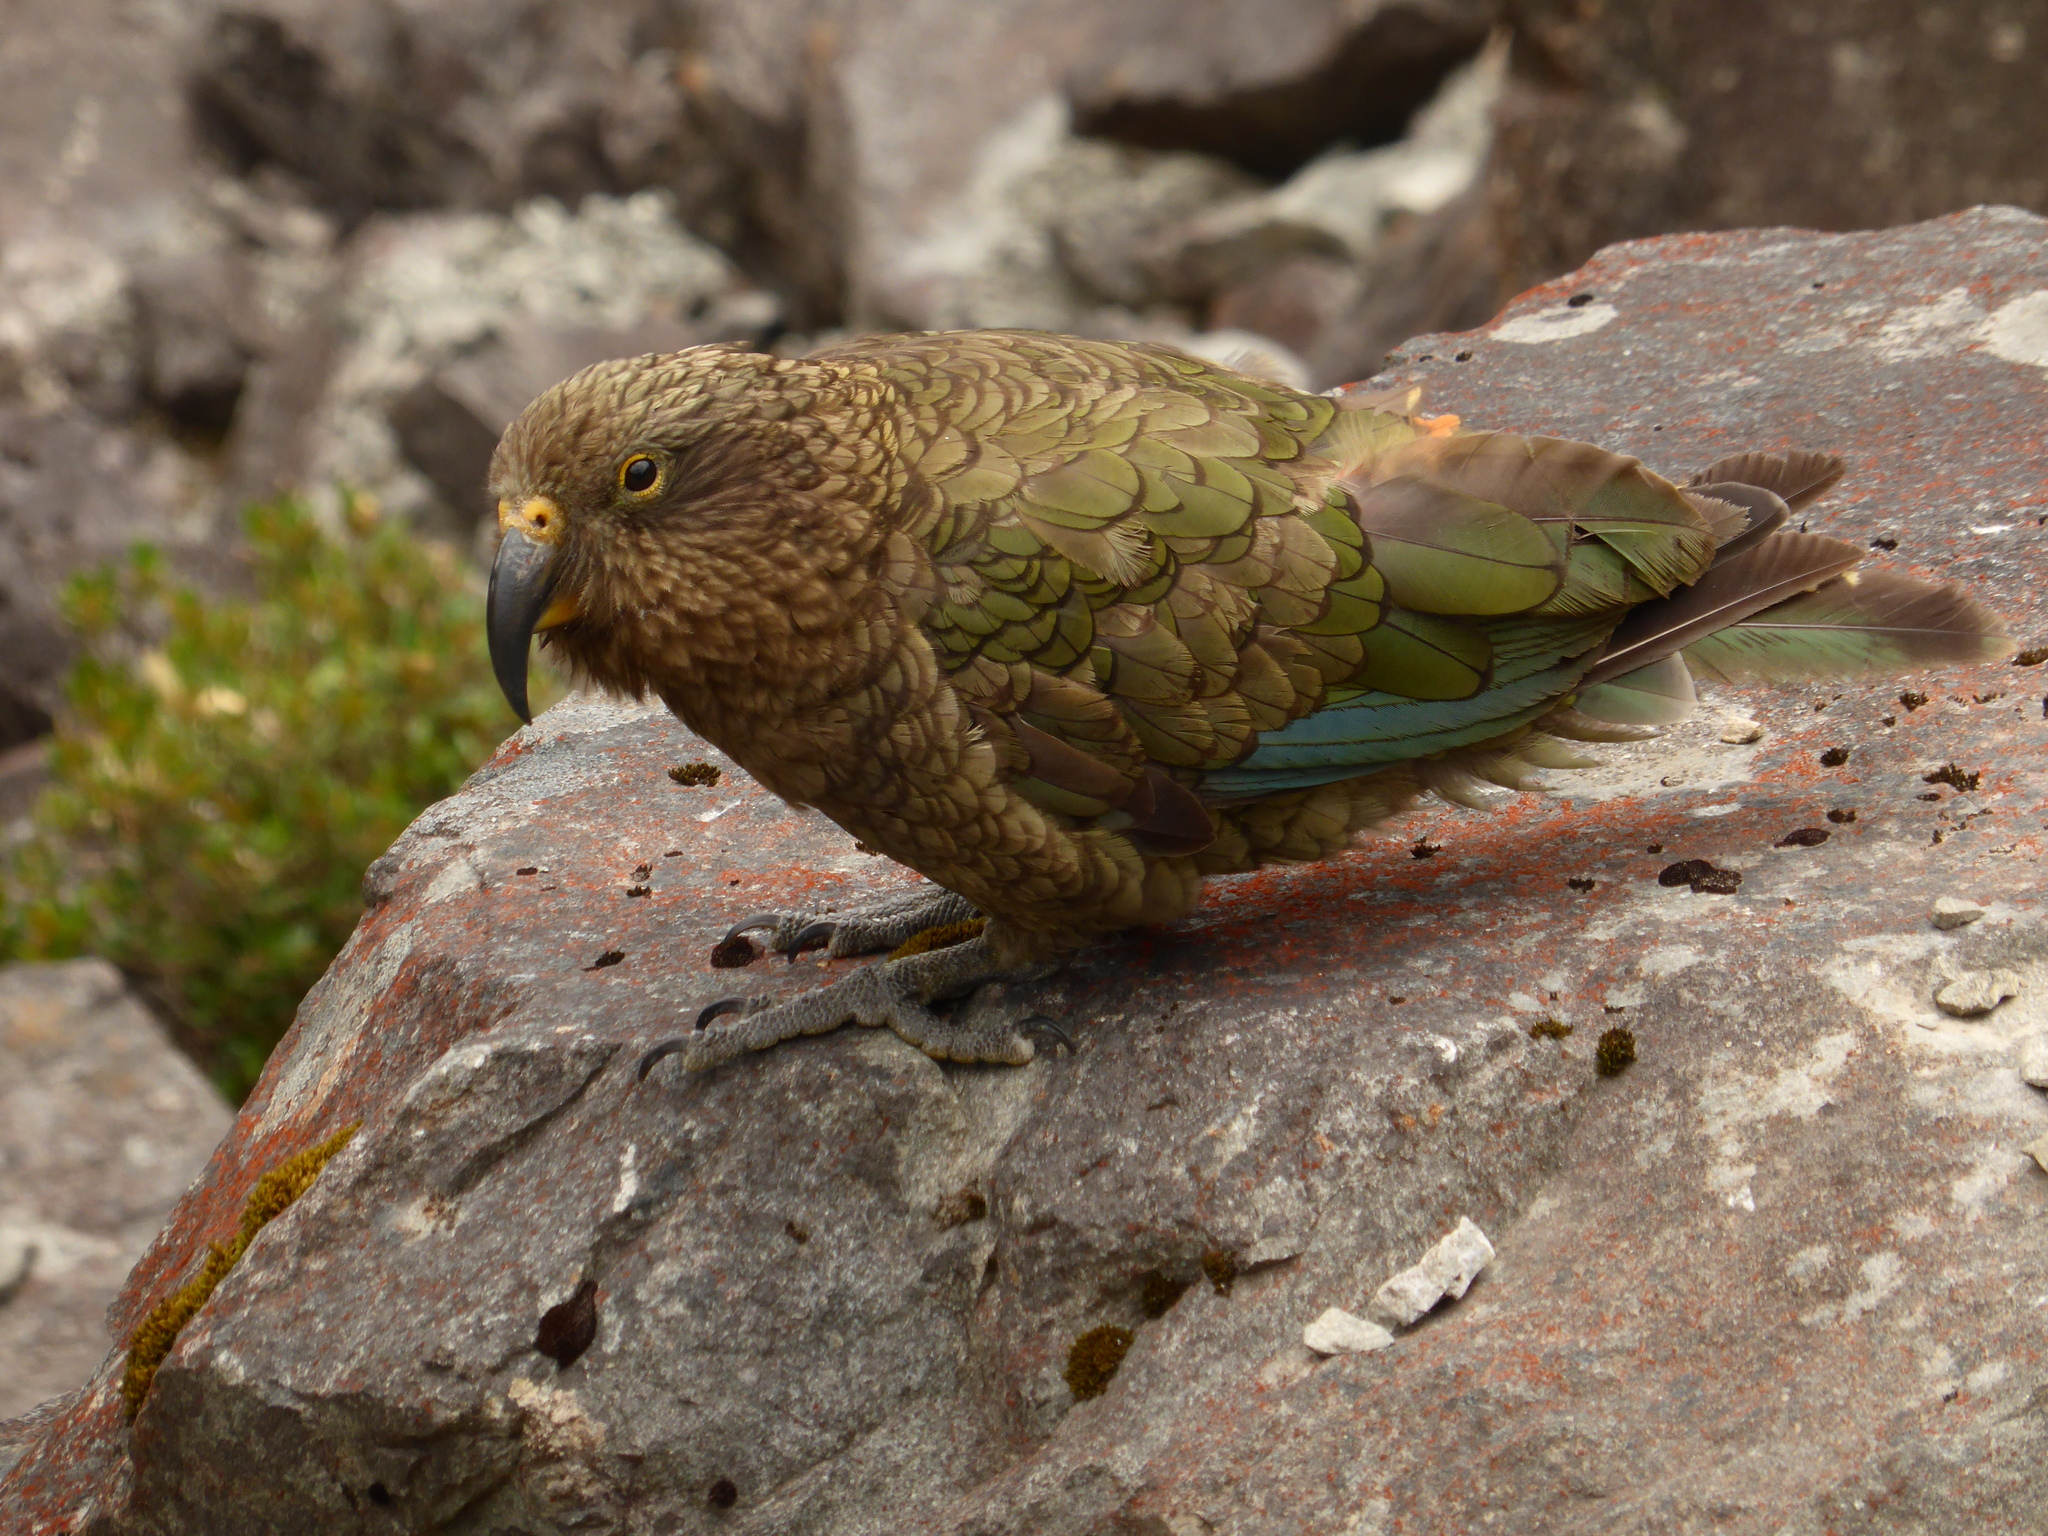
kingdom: Animalia
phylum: Chordata
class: Aves
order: Psittaciformes
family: Psittacidae
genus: Nestor
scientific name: Nestor notabilis
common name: Kea
